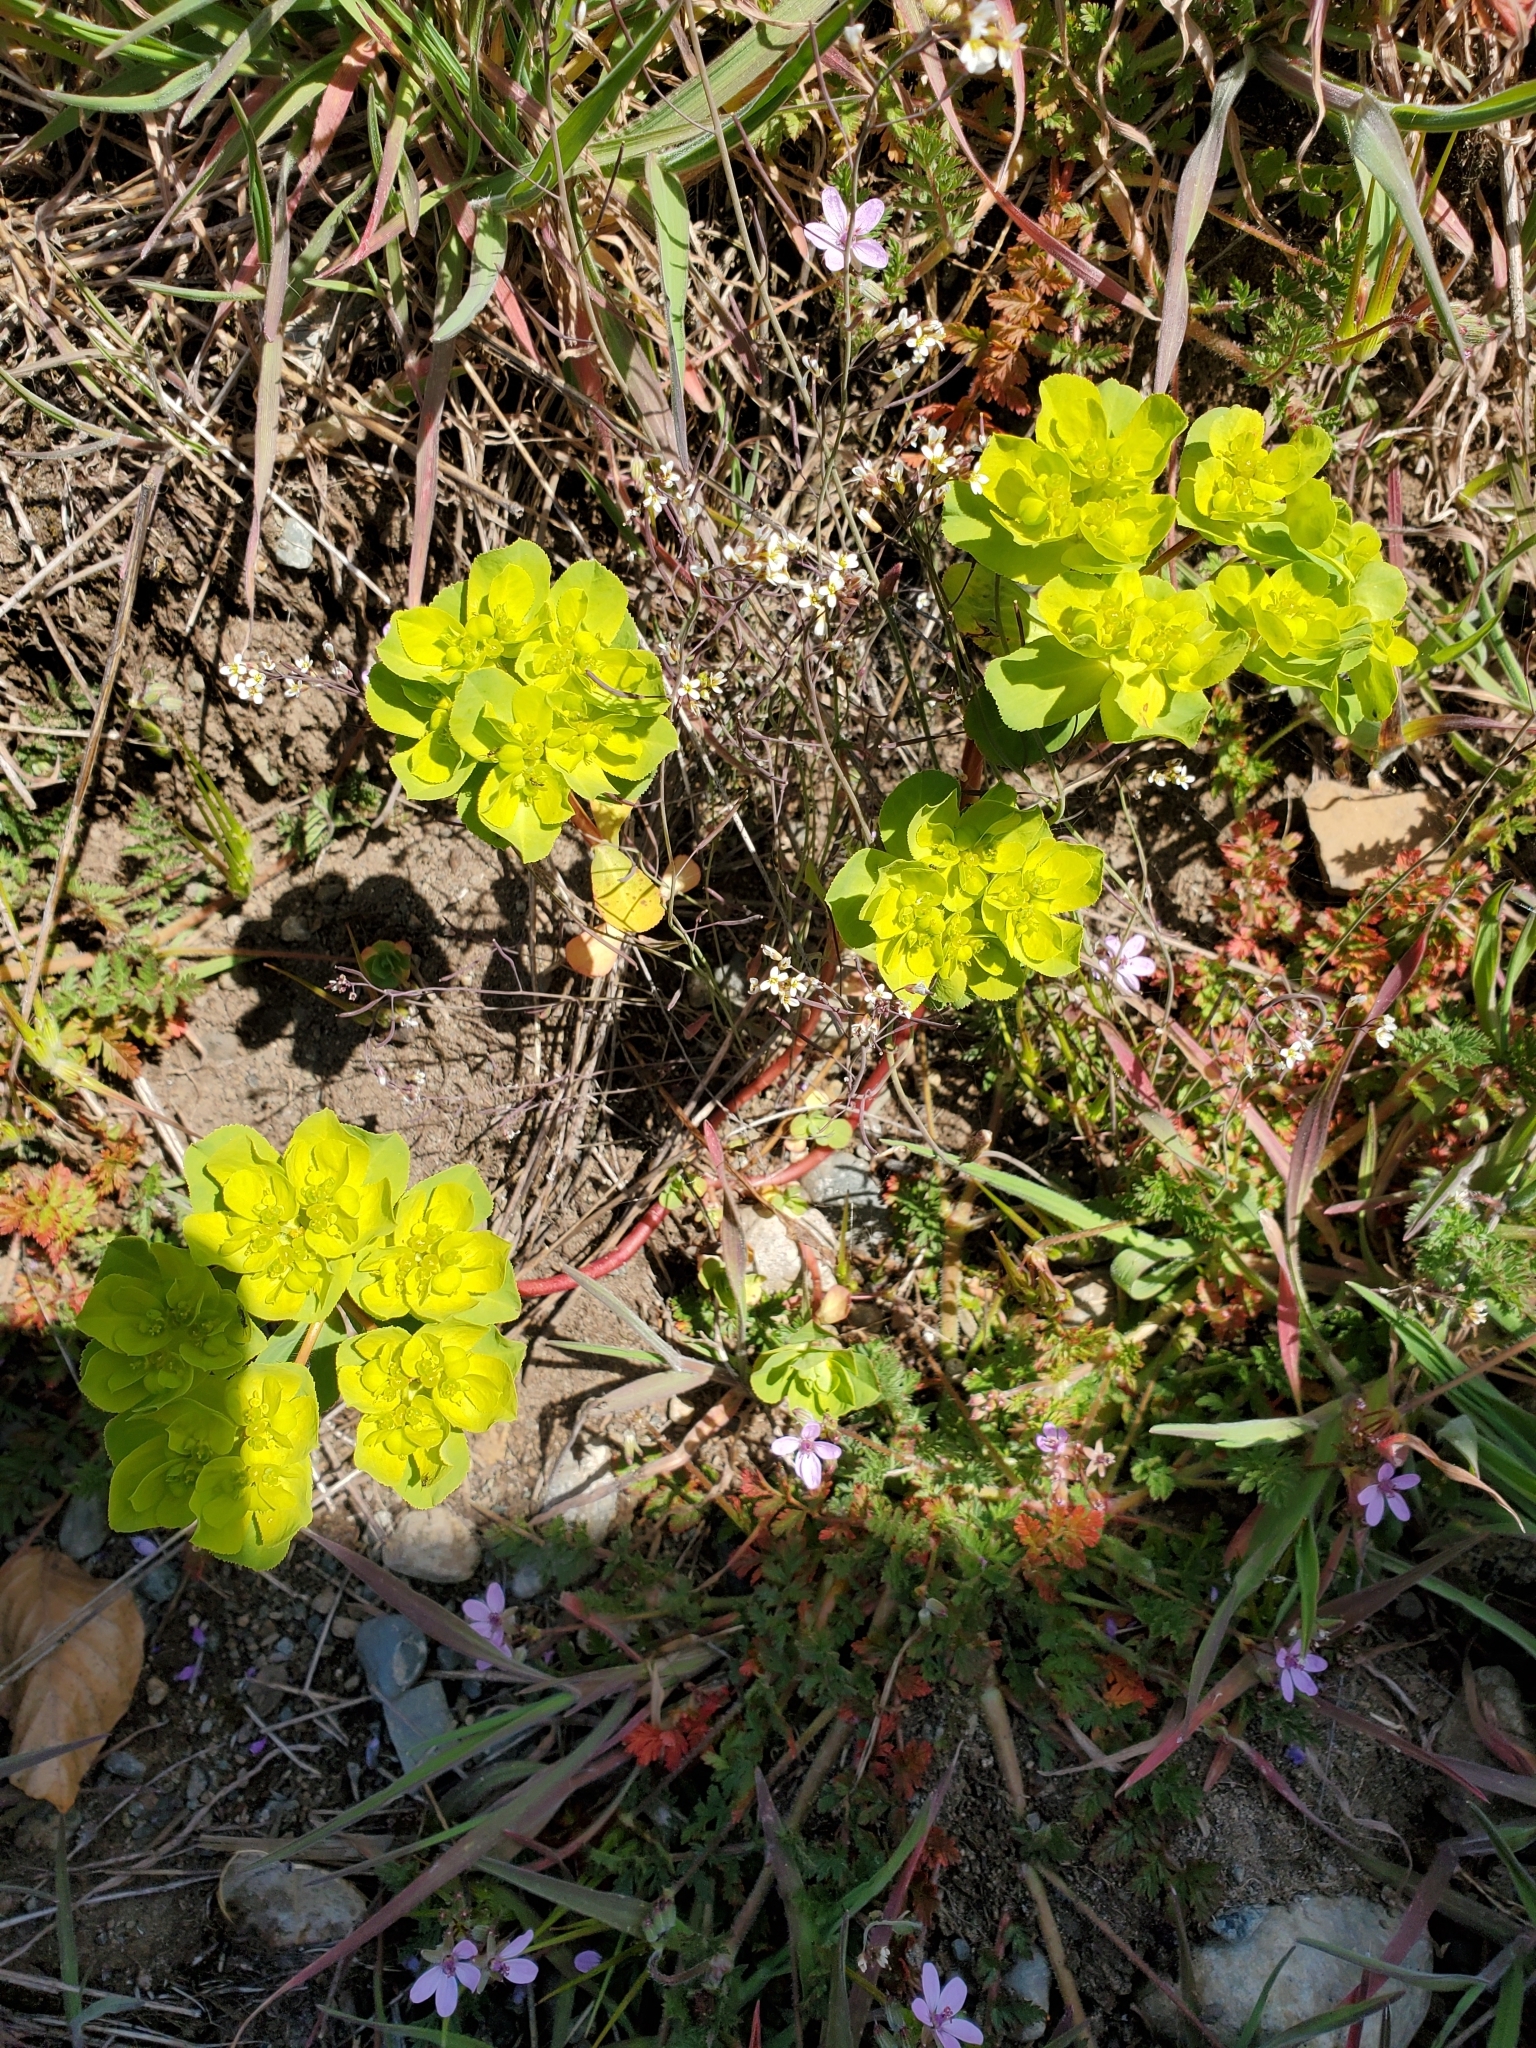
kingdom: Plantae
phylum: Tracheophyta
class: Magnoliopsida
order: Malpighiales
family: Euphorbiaceae
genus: Euphorbia
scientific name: Euphorbia helioscopia
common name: Sun spurge
